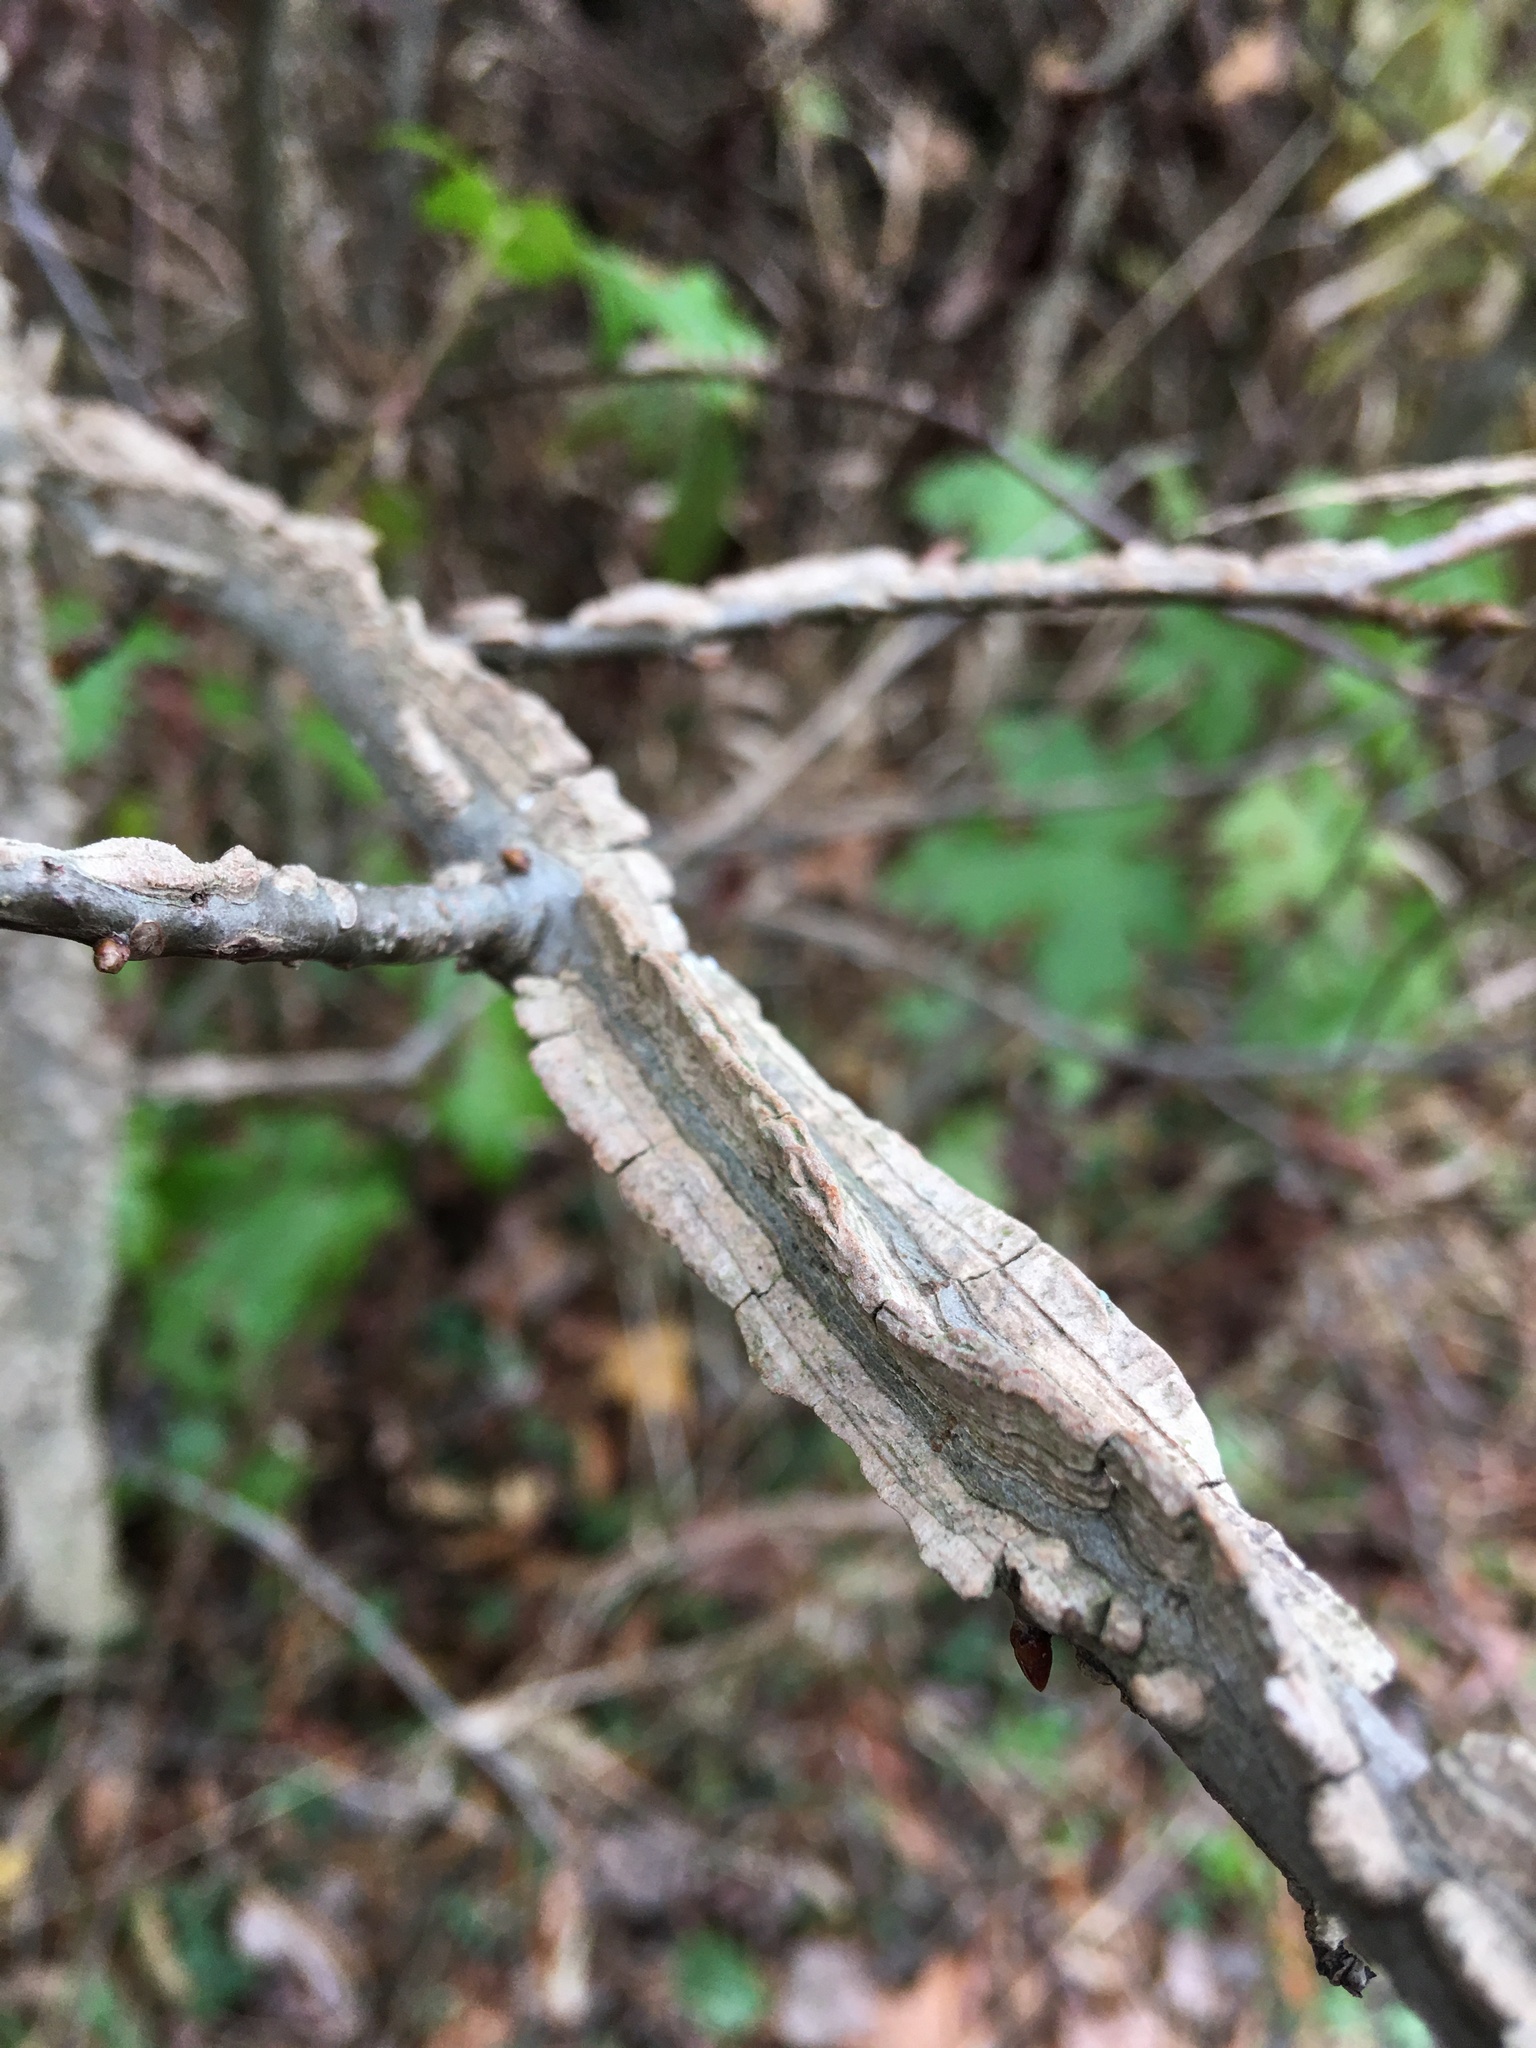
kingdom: Plantae
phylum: Tracheophyta
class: Magnoliopsida
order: Saxifragales
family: Altingiaceae
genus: Liquidambar
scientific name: Liquidambar styraciflua
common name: Sweet gum
